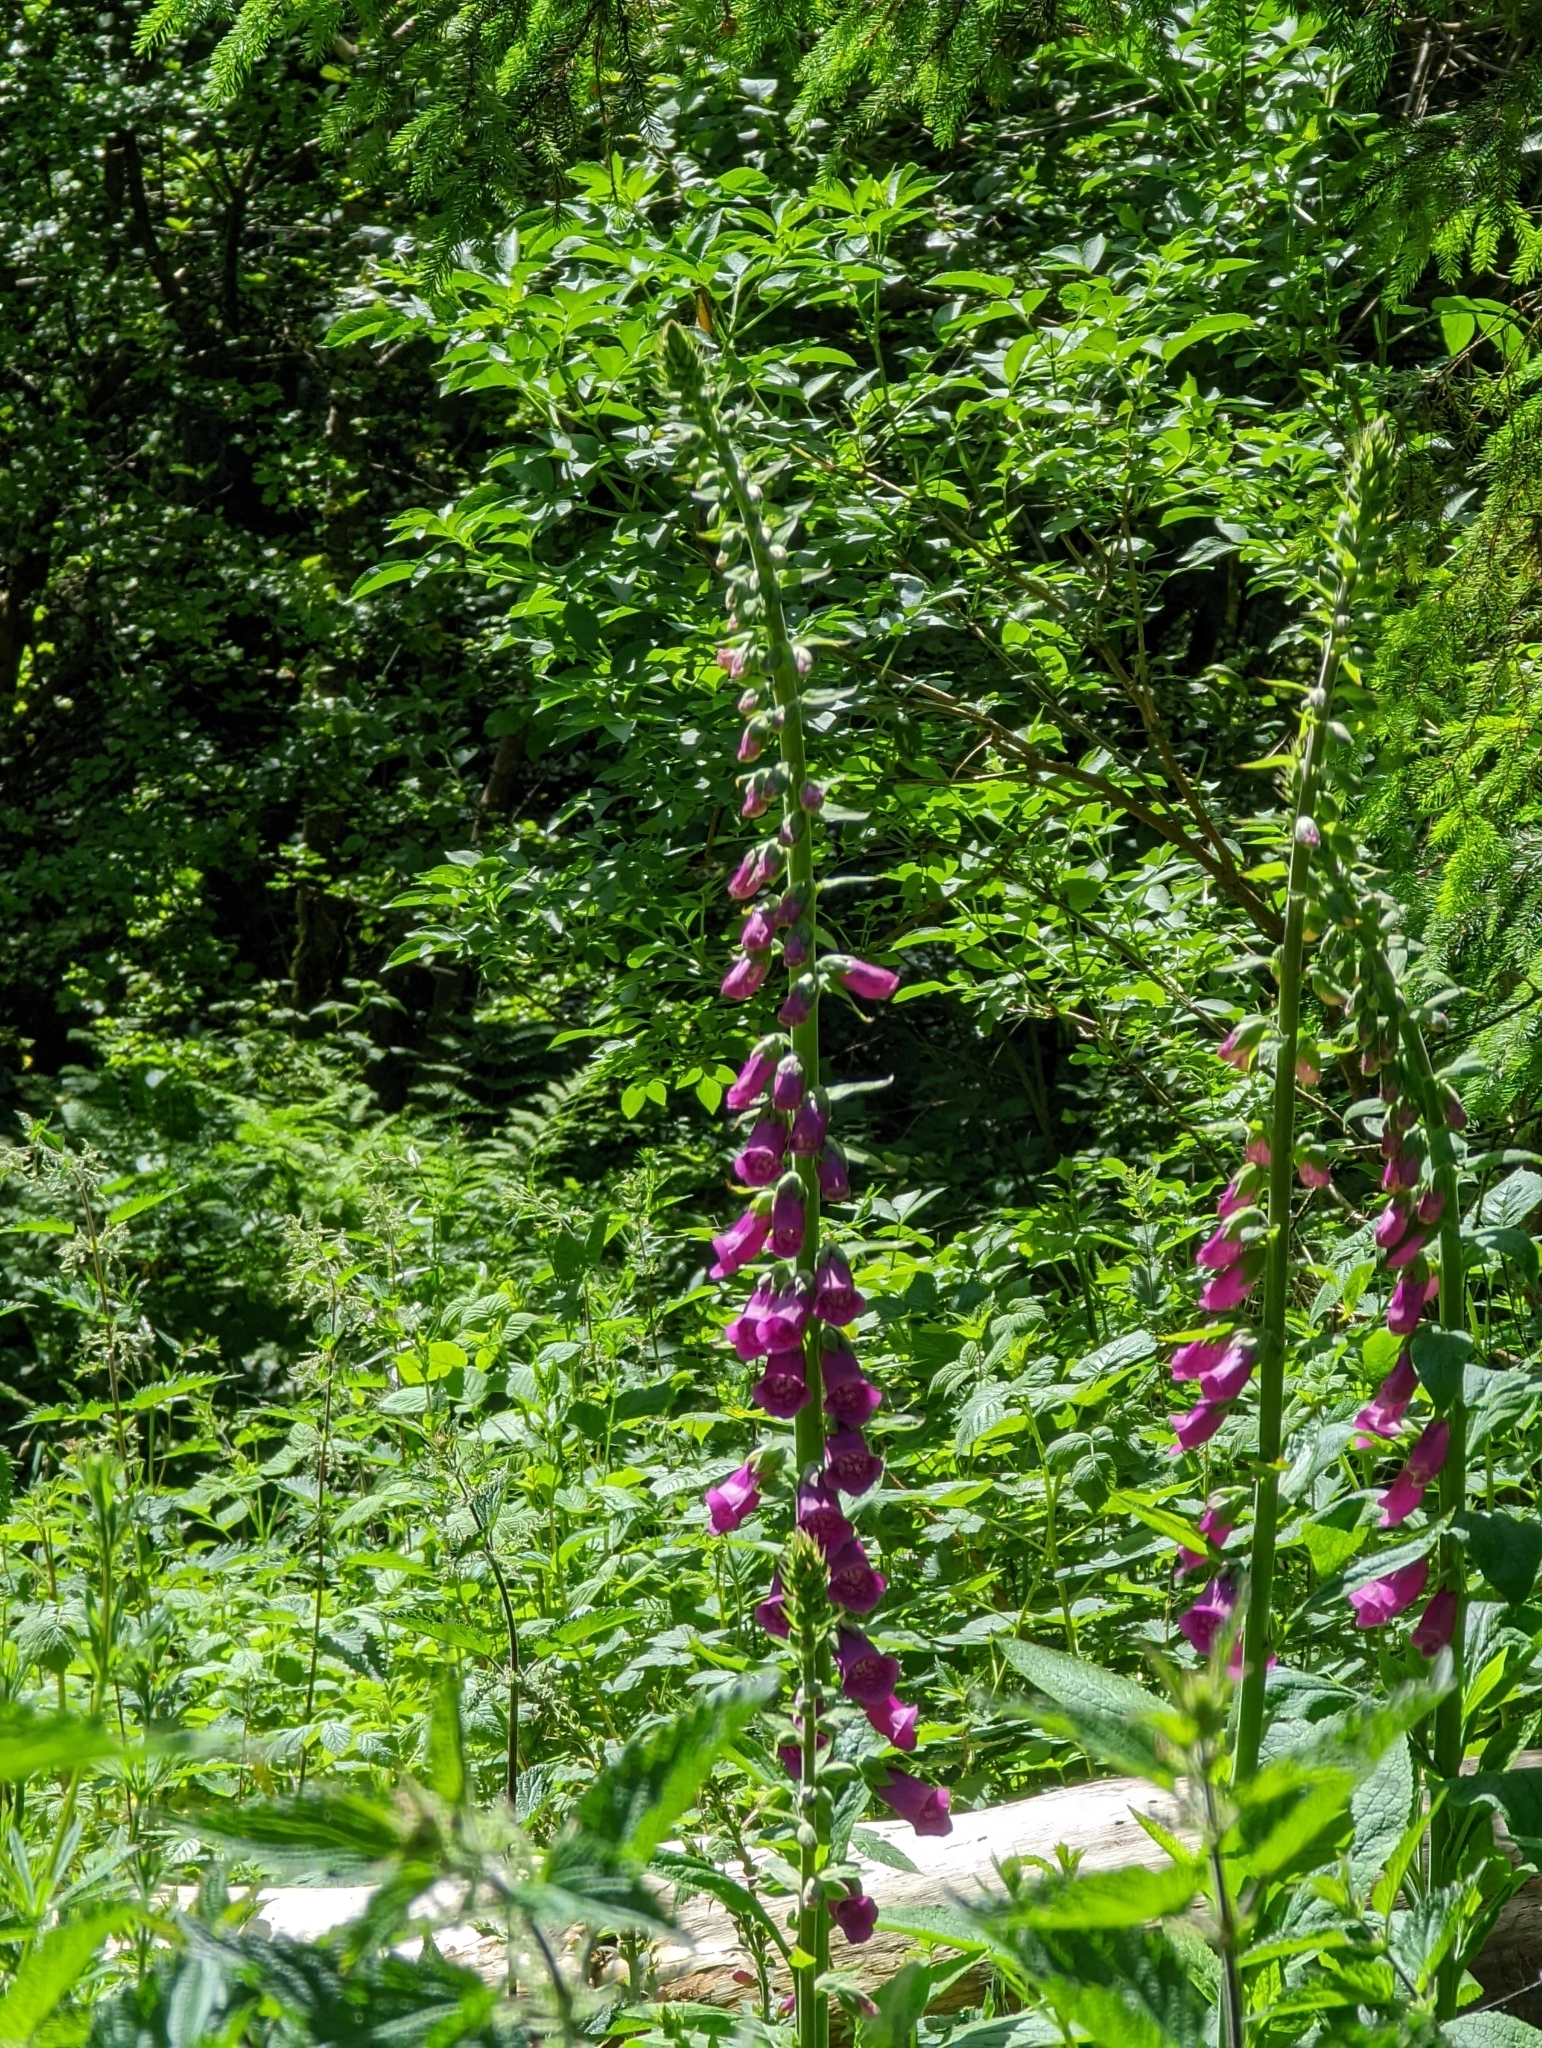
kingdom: Plantae
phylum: Tracheophyta
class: Magnoliopsida
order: Lamiales
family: Plantaginaceae
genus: Digitalis
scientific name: Digitalis purpurea
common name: Foxglove
